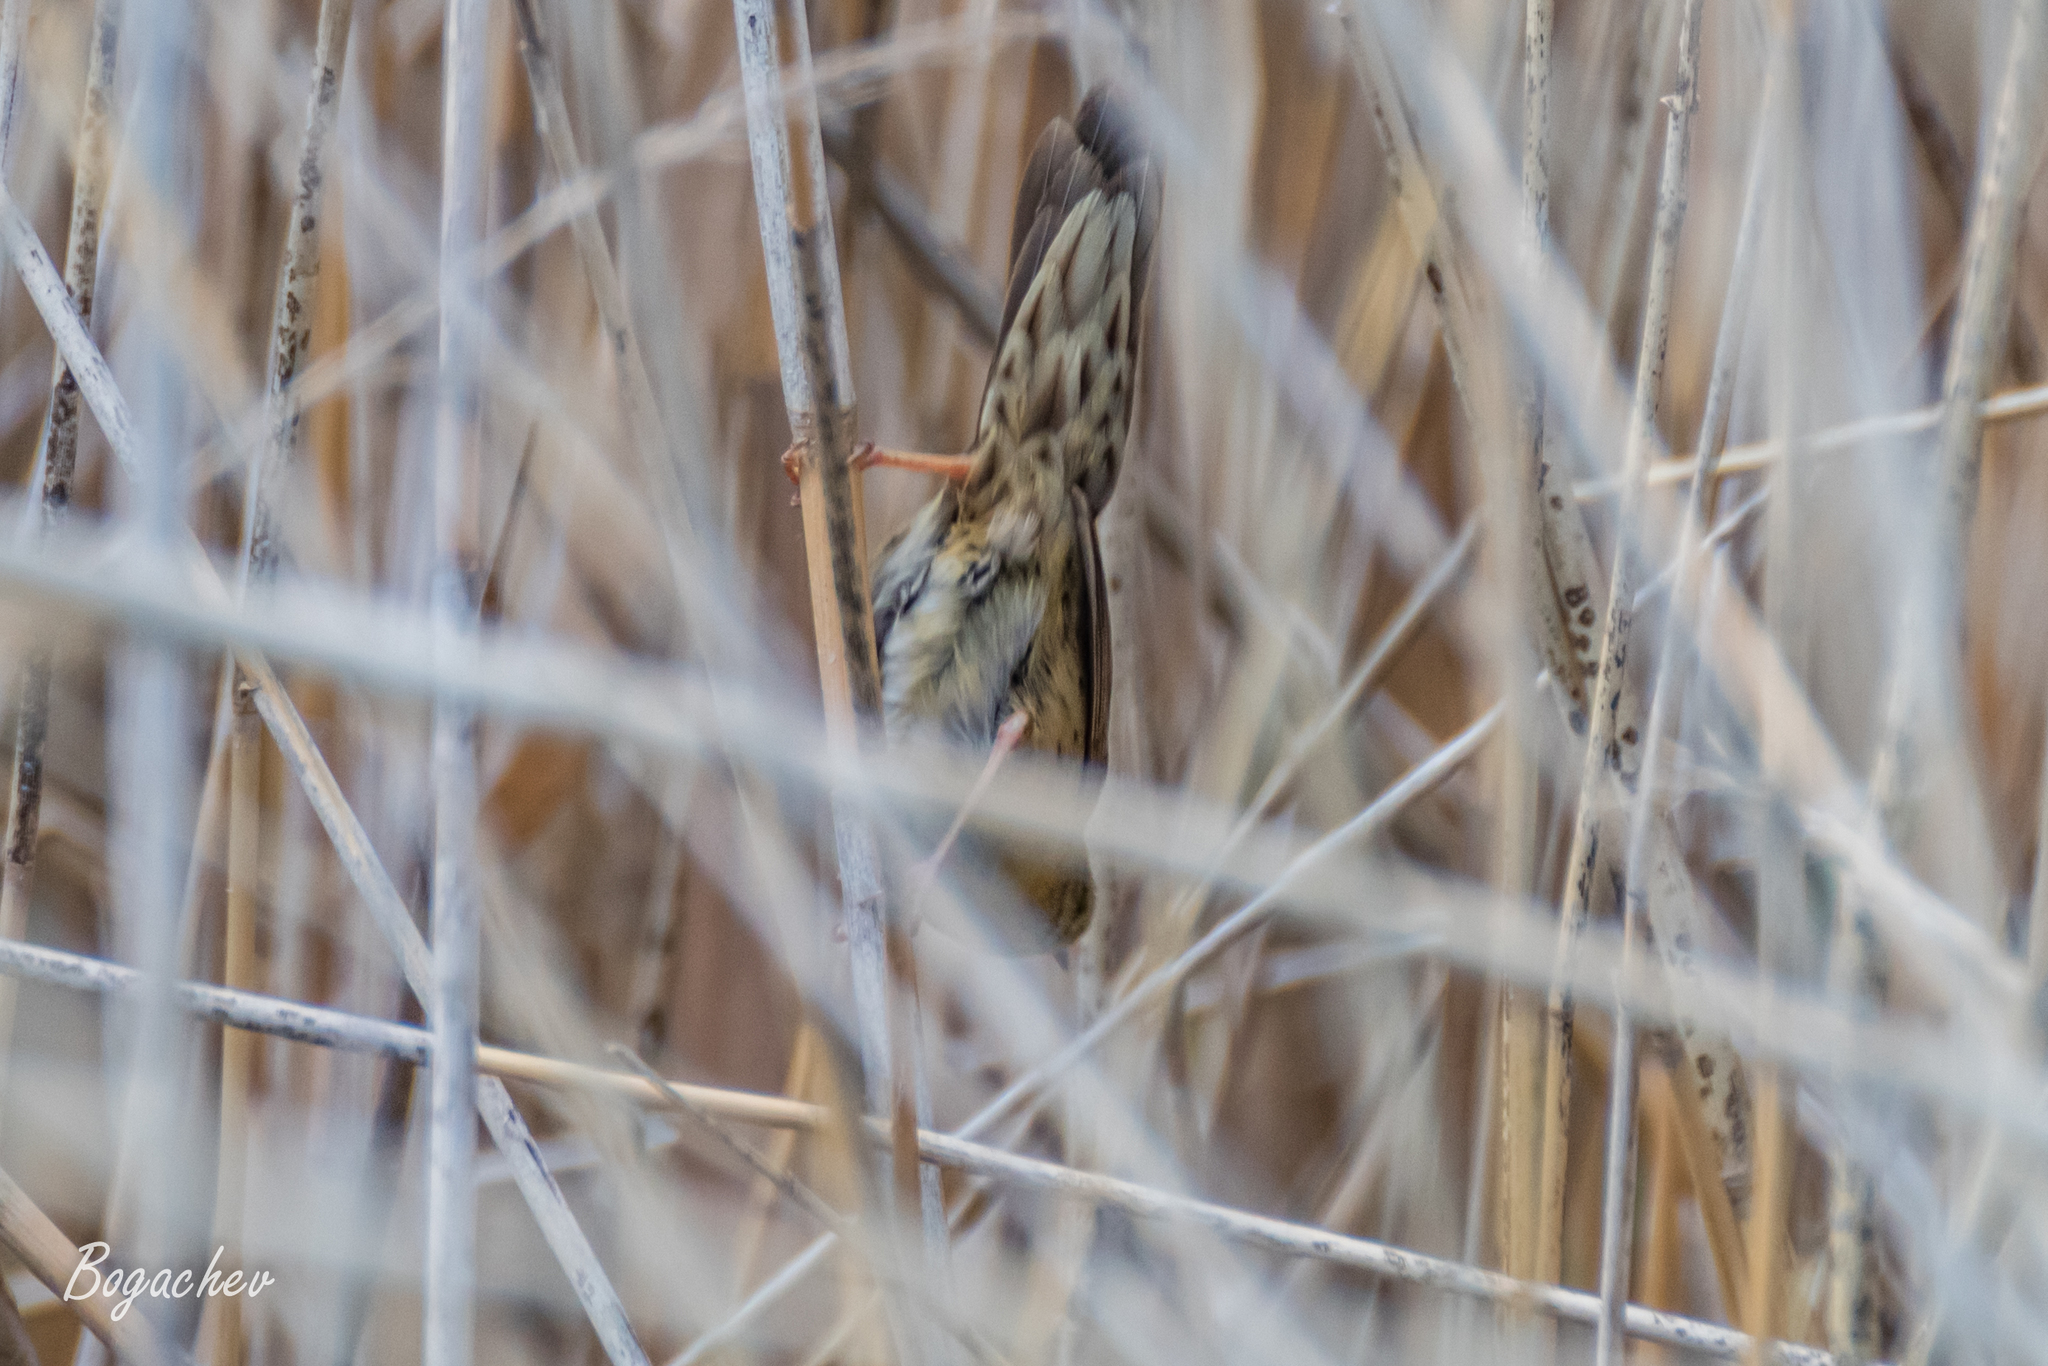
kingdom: Animalia
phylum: Chordata
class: Aves
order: Passeriformes
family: Locustellidae
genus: Locustella
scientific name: Locustella naevia
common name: Common grasshopper warbler
